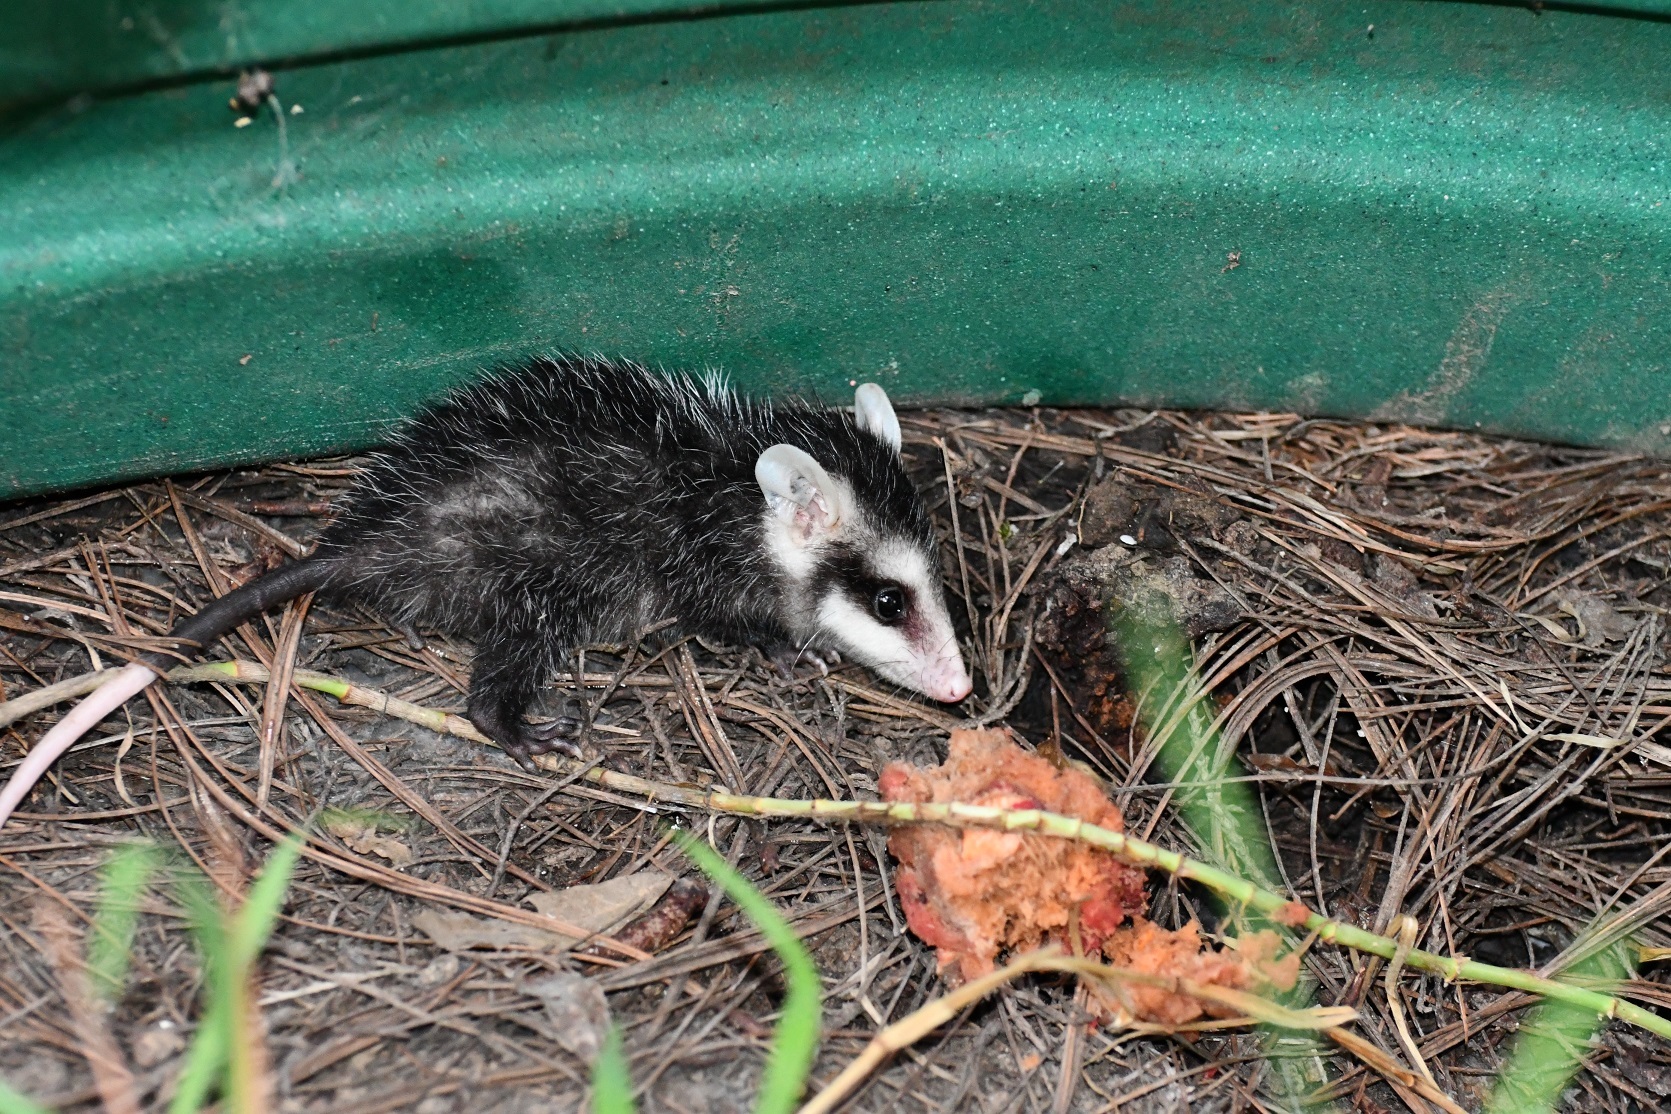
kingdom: Animalia
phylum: Chordata
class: Mammalia
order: Didelphimorphia
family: Didelphidae
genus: Didelphis
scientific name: Didelphis virginiana
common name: Virginia opossum
